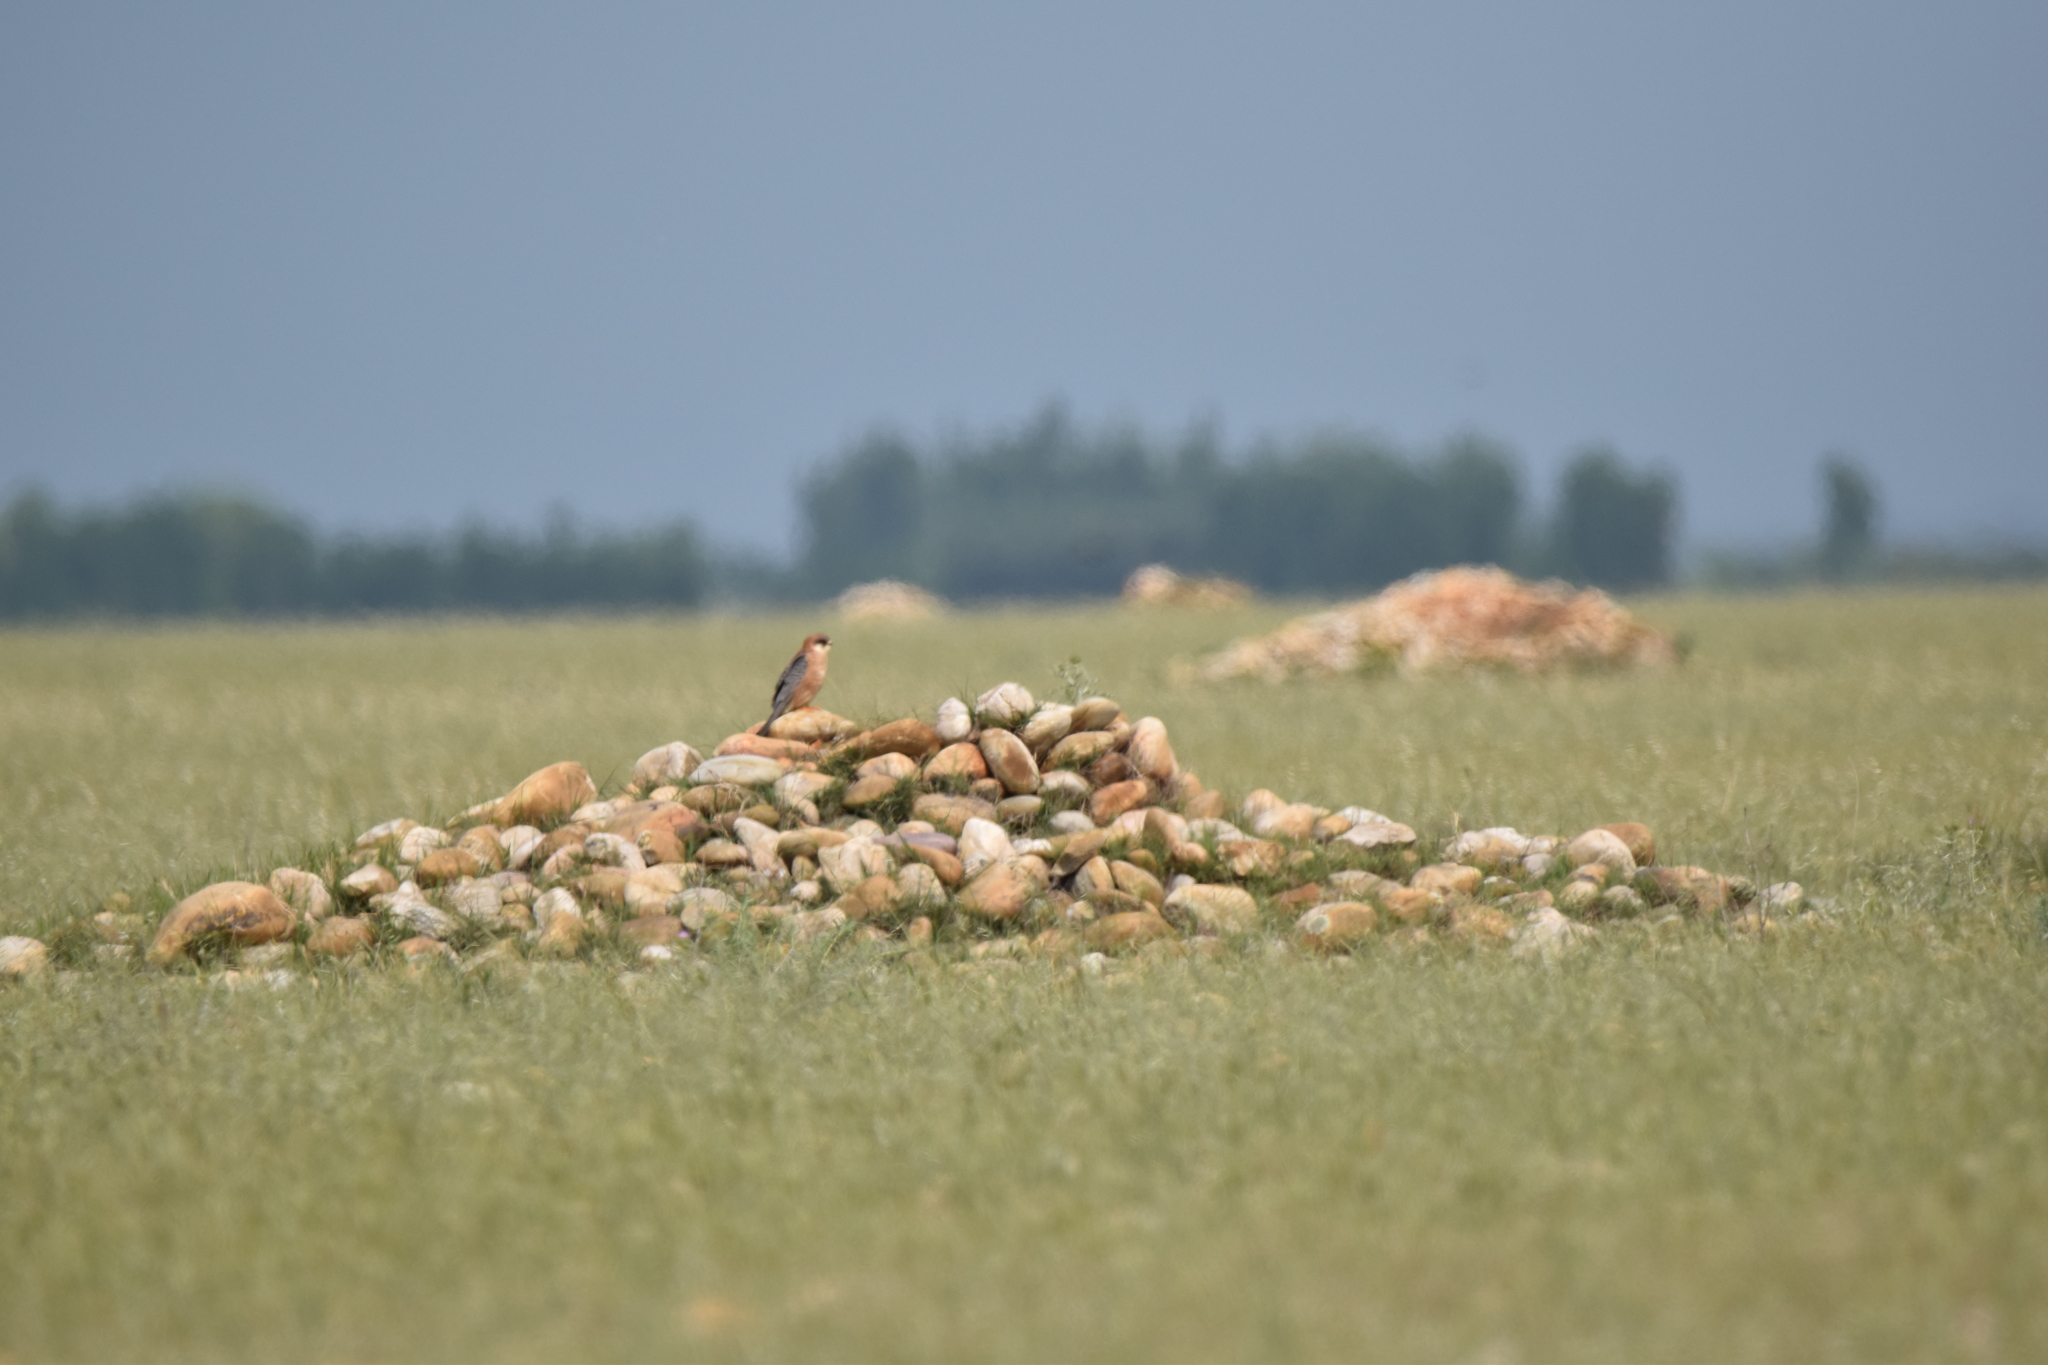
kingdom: Animalia
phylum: Chordata
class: Aves
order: Falconiformes
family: Falconidae
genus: Falco
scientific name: Falco vespertinus
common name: Red-footed falcon
